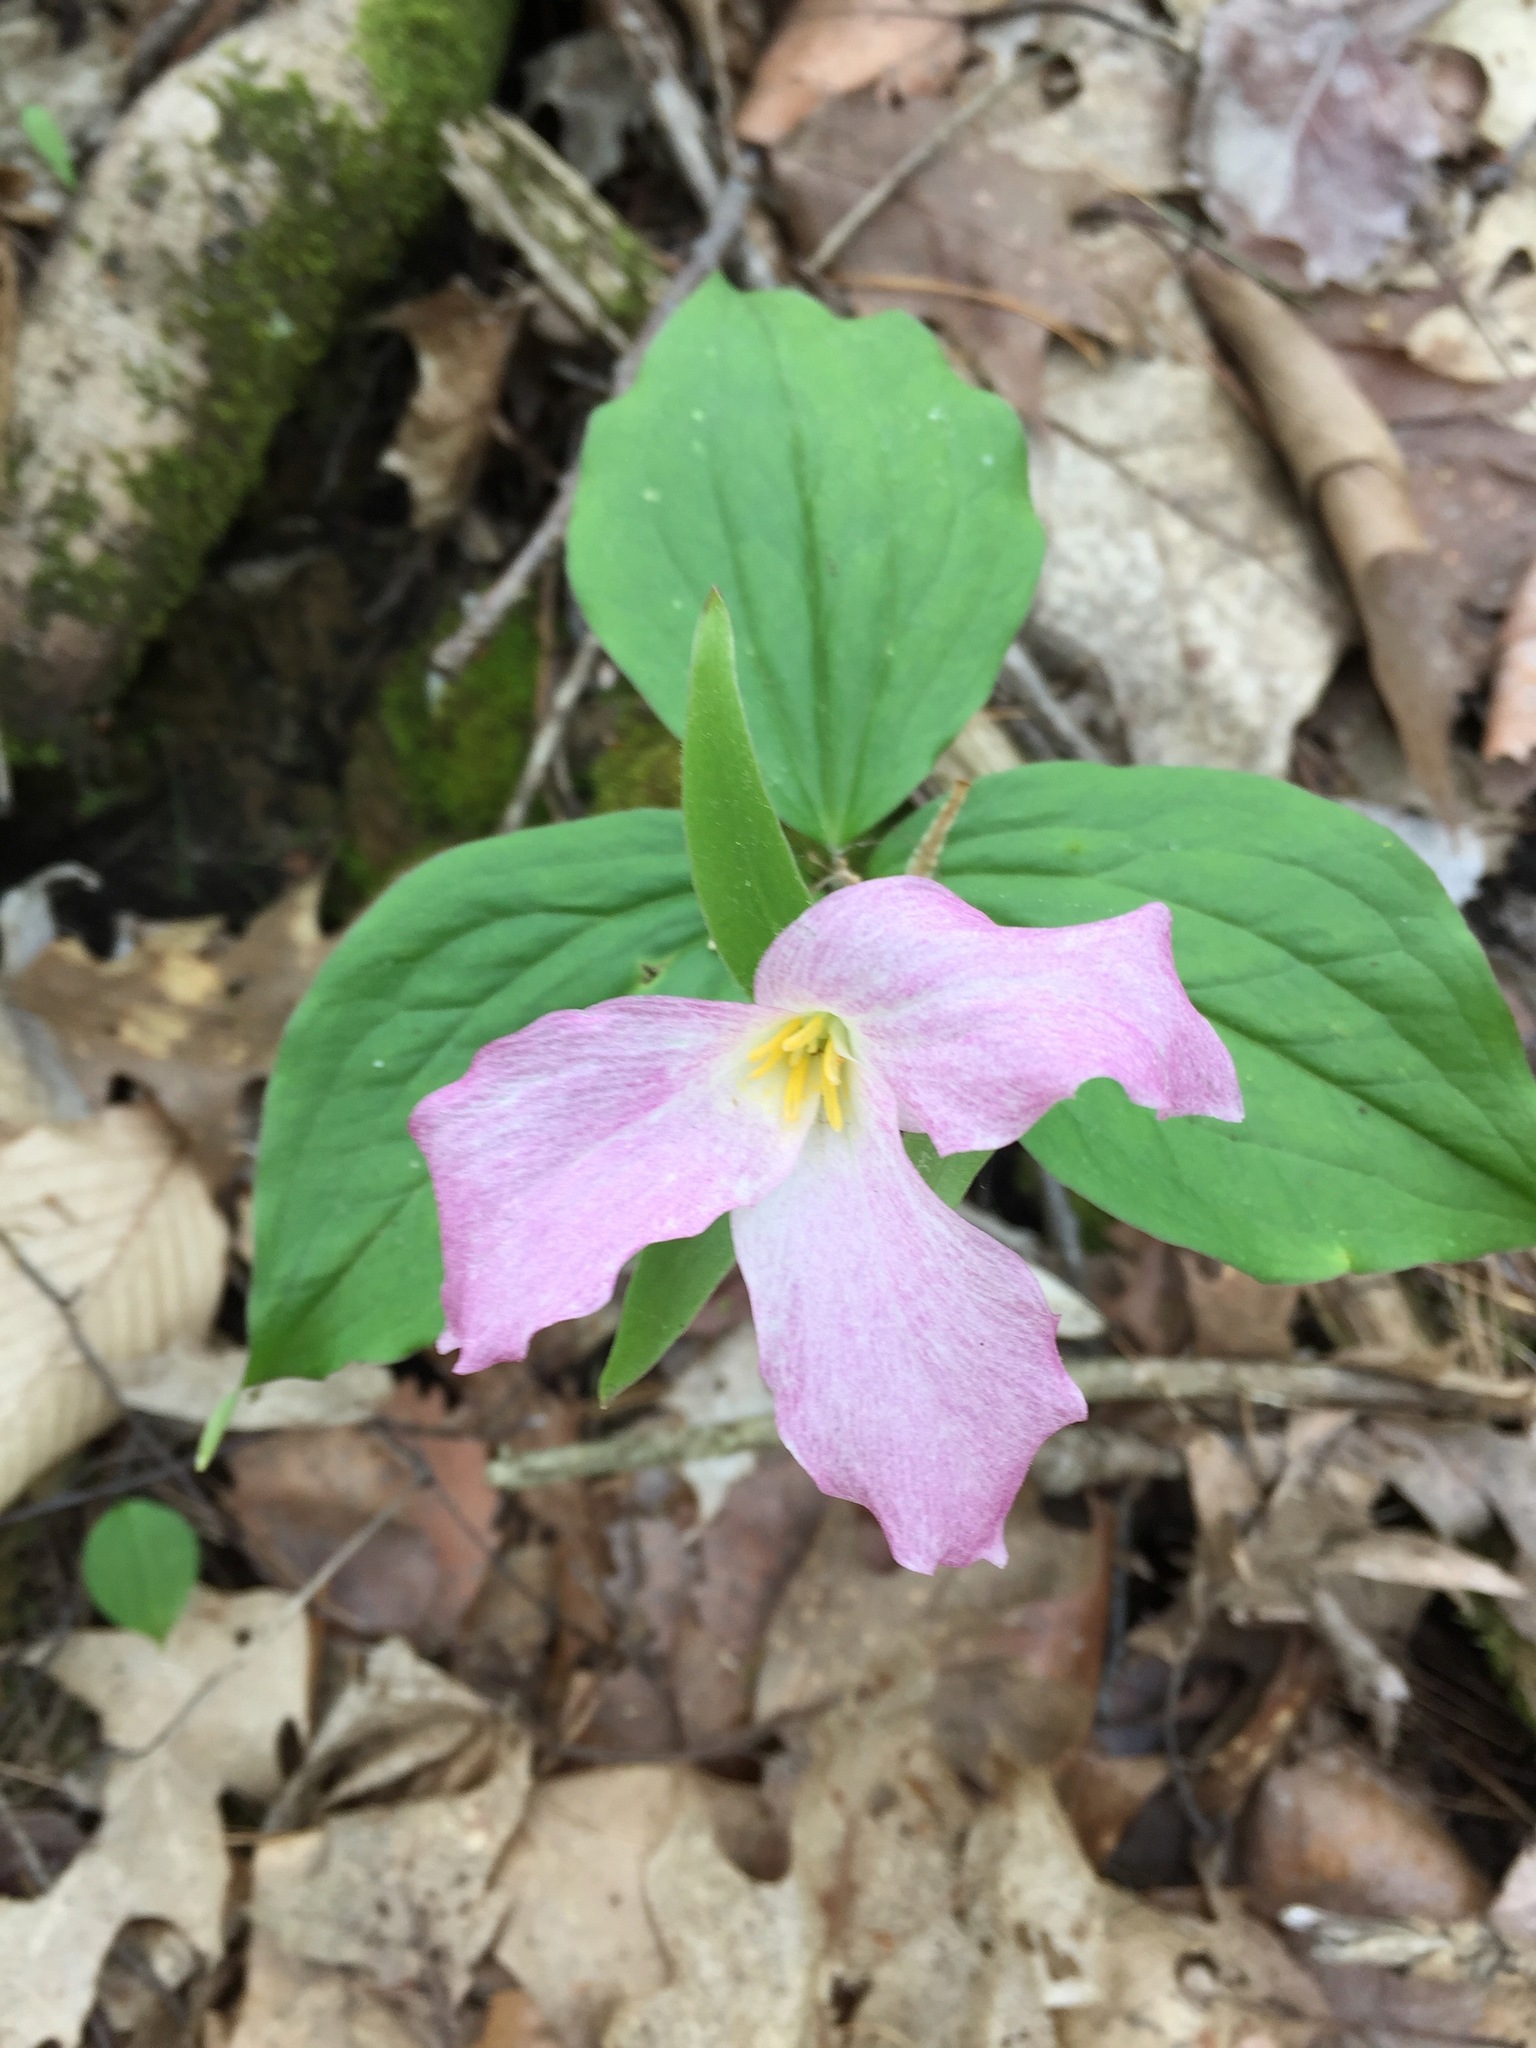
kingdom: Plantae
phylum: Tracheophyta
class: Liliopsida
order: Liliales
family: Melanthiaceae
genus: Trillium
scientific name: Trillium grandiflorum
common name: Great white trillium
